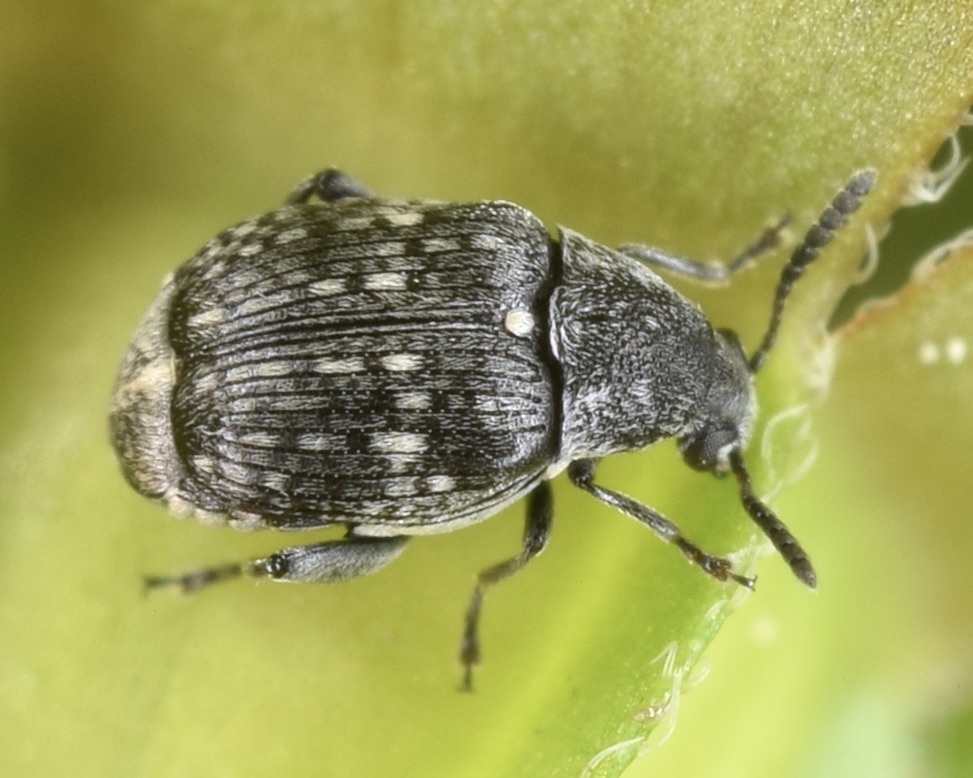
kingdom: Animalia
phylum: Arthropoda
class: Insecta
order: Coleoptera
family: Chrysomelidae
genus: Acanthoscelides
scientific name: Acanthoscelides alboscutellatus
